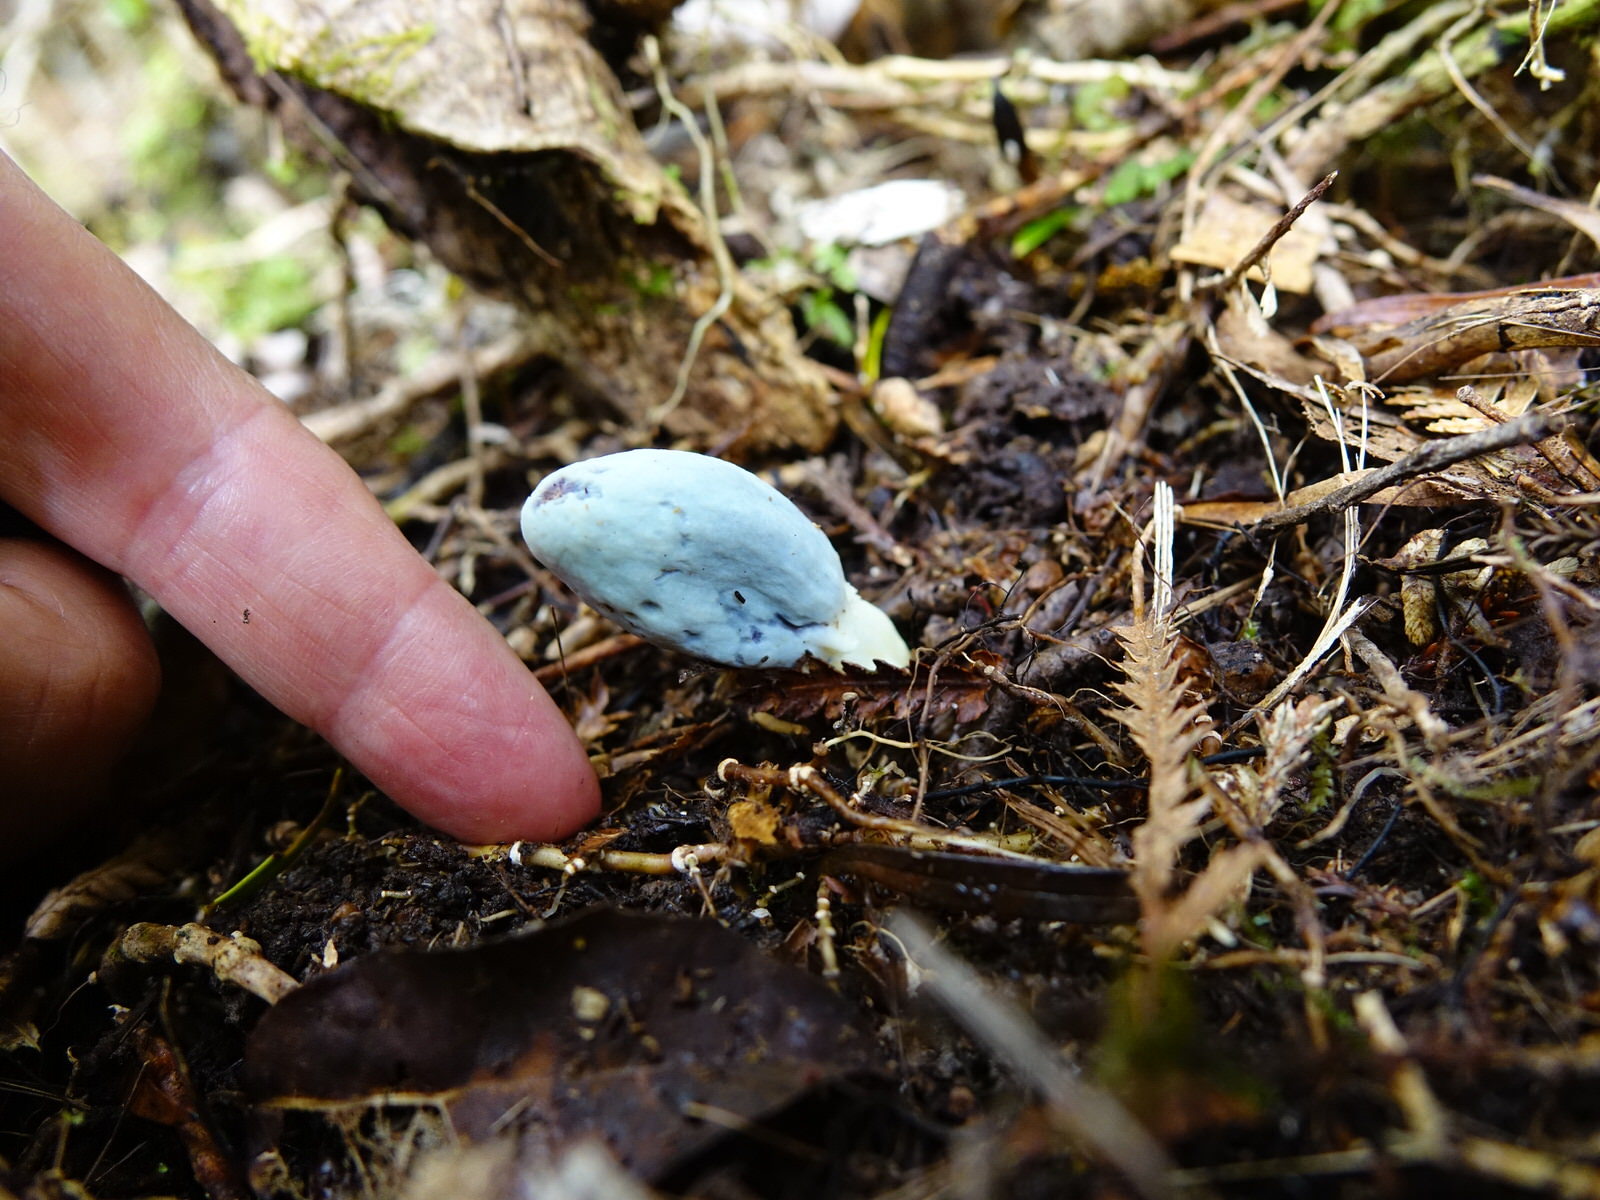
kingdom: Fungi
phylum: Basidiomycota
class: Agaricomycetes
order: Agaricales
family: Agaricaceae
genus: Clavogaster
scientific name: Clavogaster virescens
